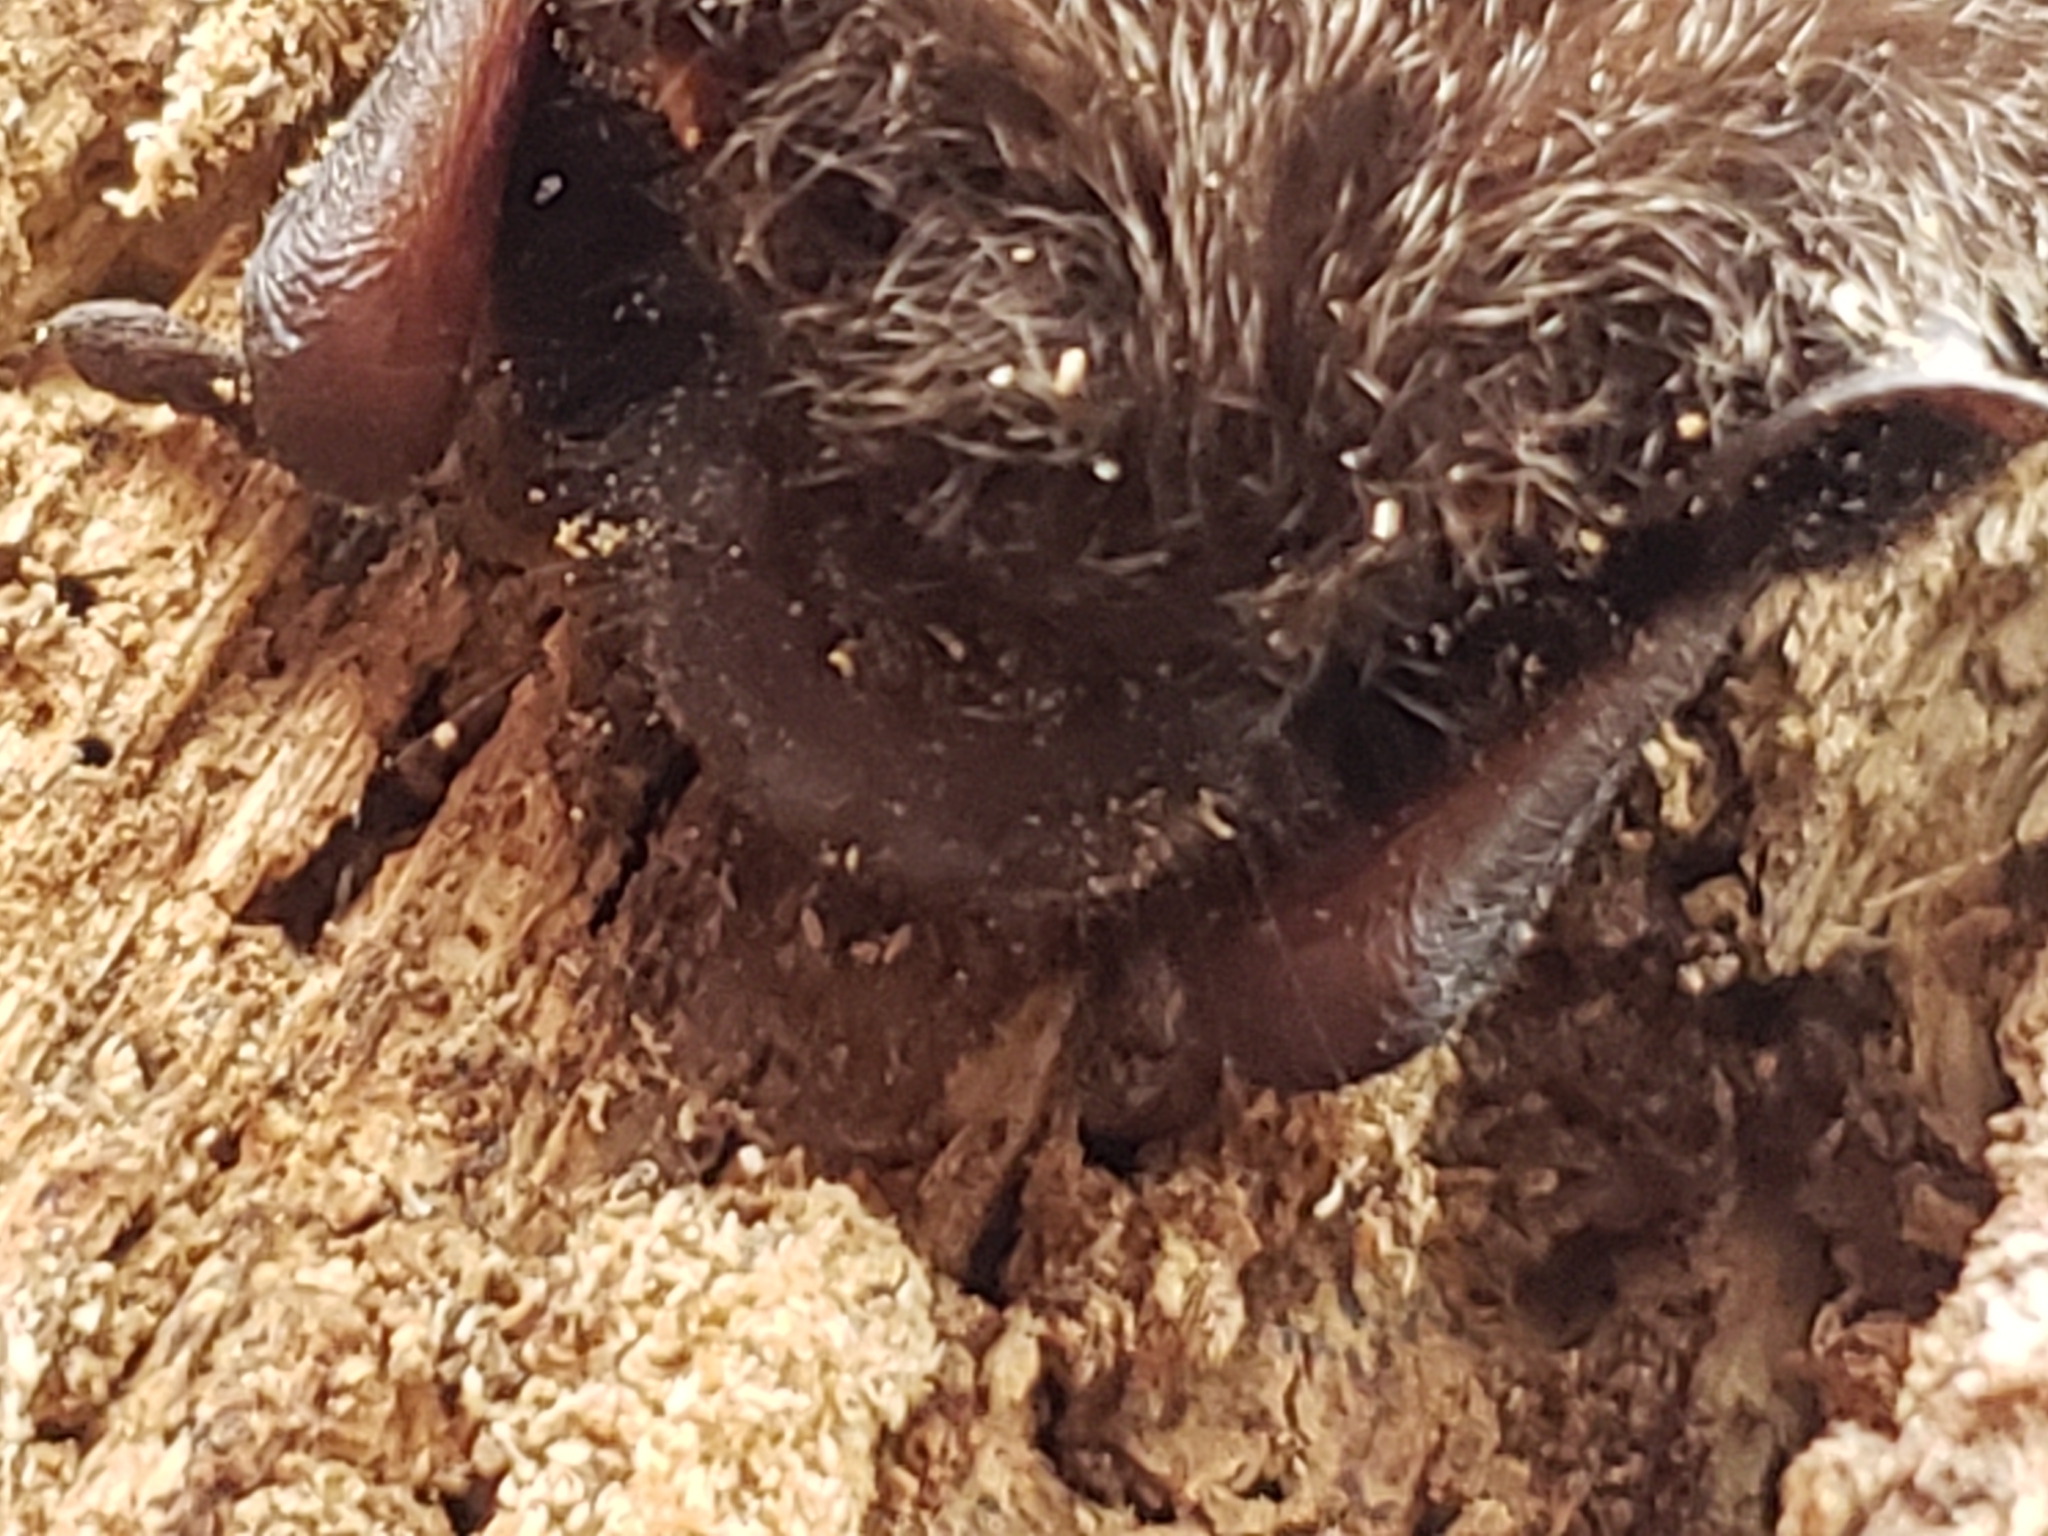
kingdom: Animalia
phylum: Chordata
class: Mammalia
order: Chiroptera
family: Vespertilionidae
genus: Lasionycteris
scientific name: Lasionycteris noctivagans
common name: Silver-haired bat
